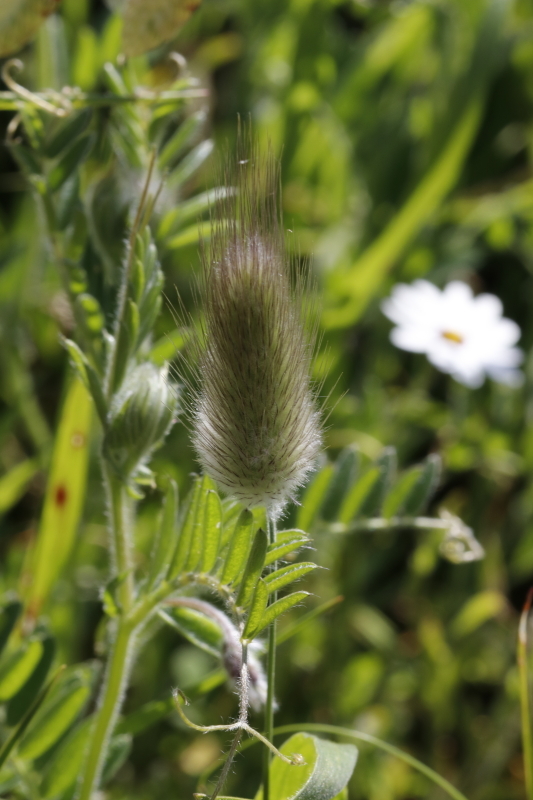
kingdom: Plantae
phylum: Tracheophyta
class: Liliopsida
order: Poales
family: Poaceae
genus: Lagurus
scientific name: Lagurus ovatus
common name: Hare's-tail
